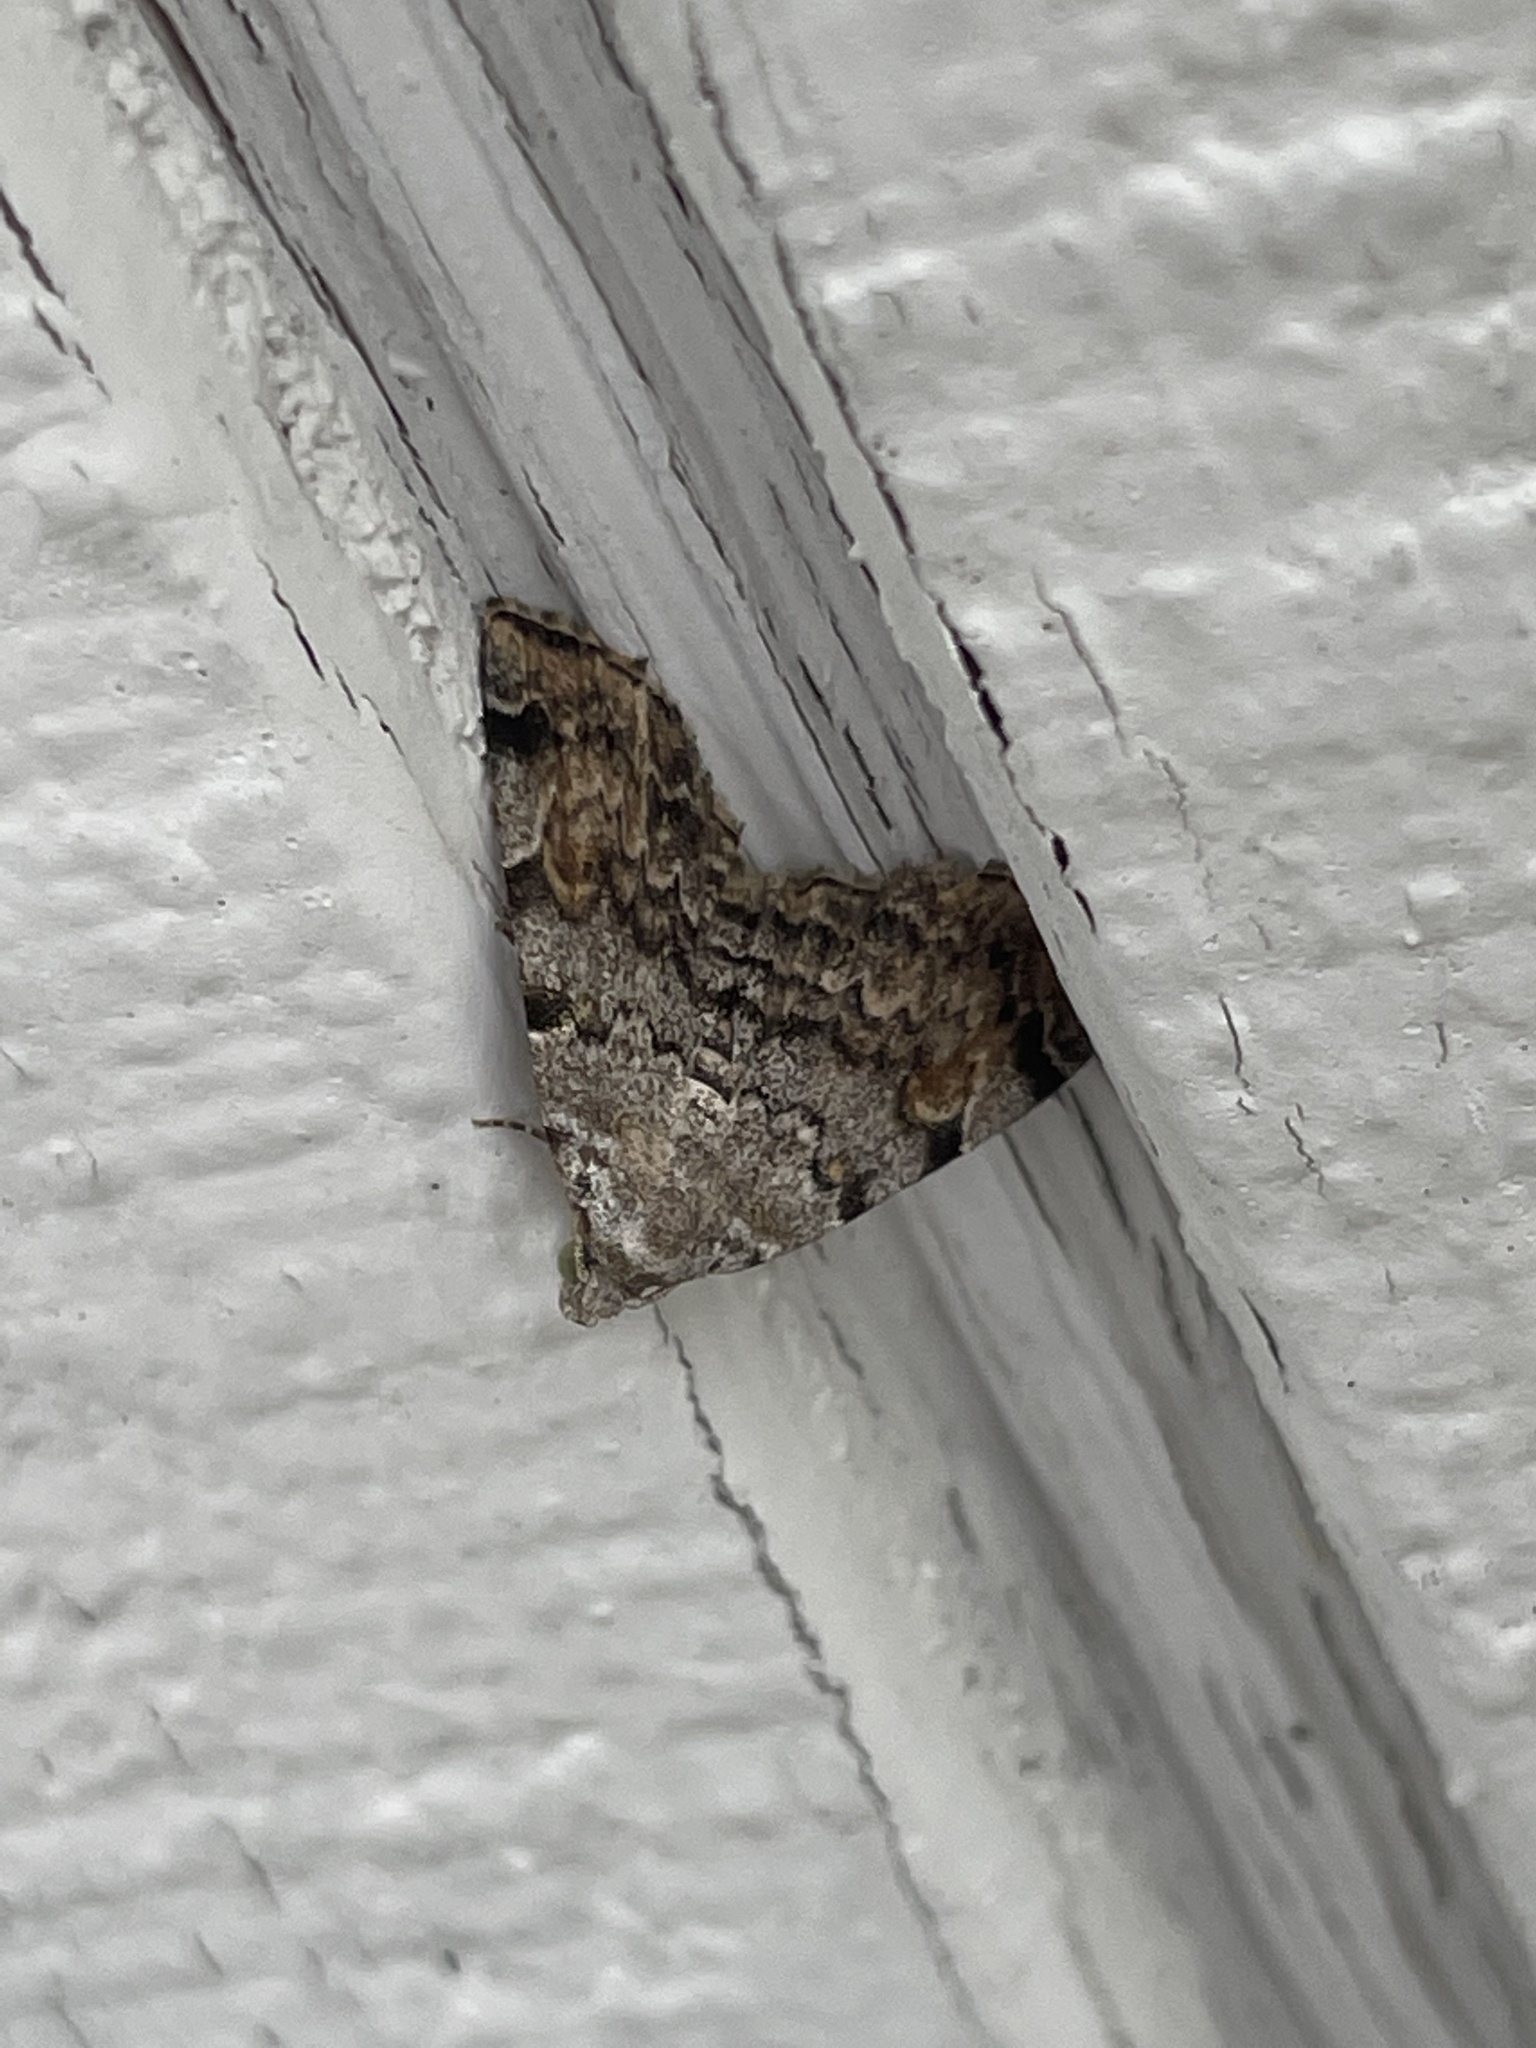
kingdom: Animalia
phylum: Arthropoda
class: Insecta
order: Lepidoptera
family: Erebidae
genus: Idia
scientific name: Idia americalis
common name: American idia moth
